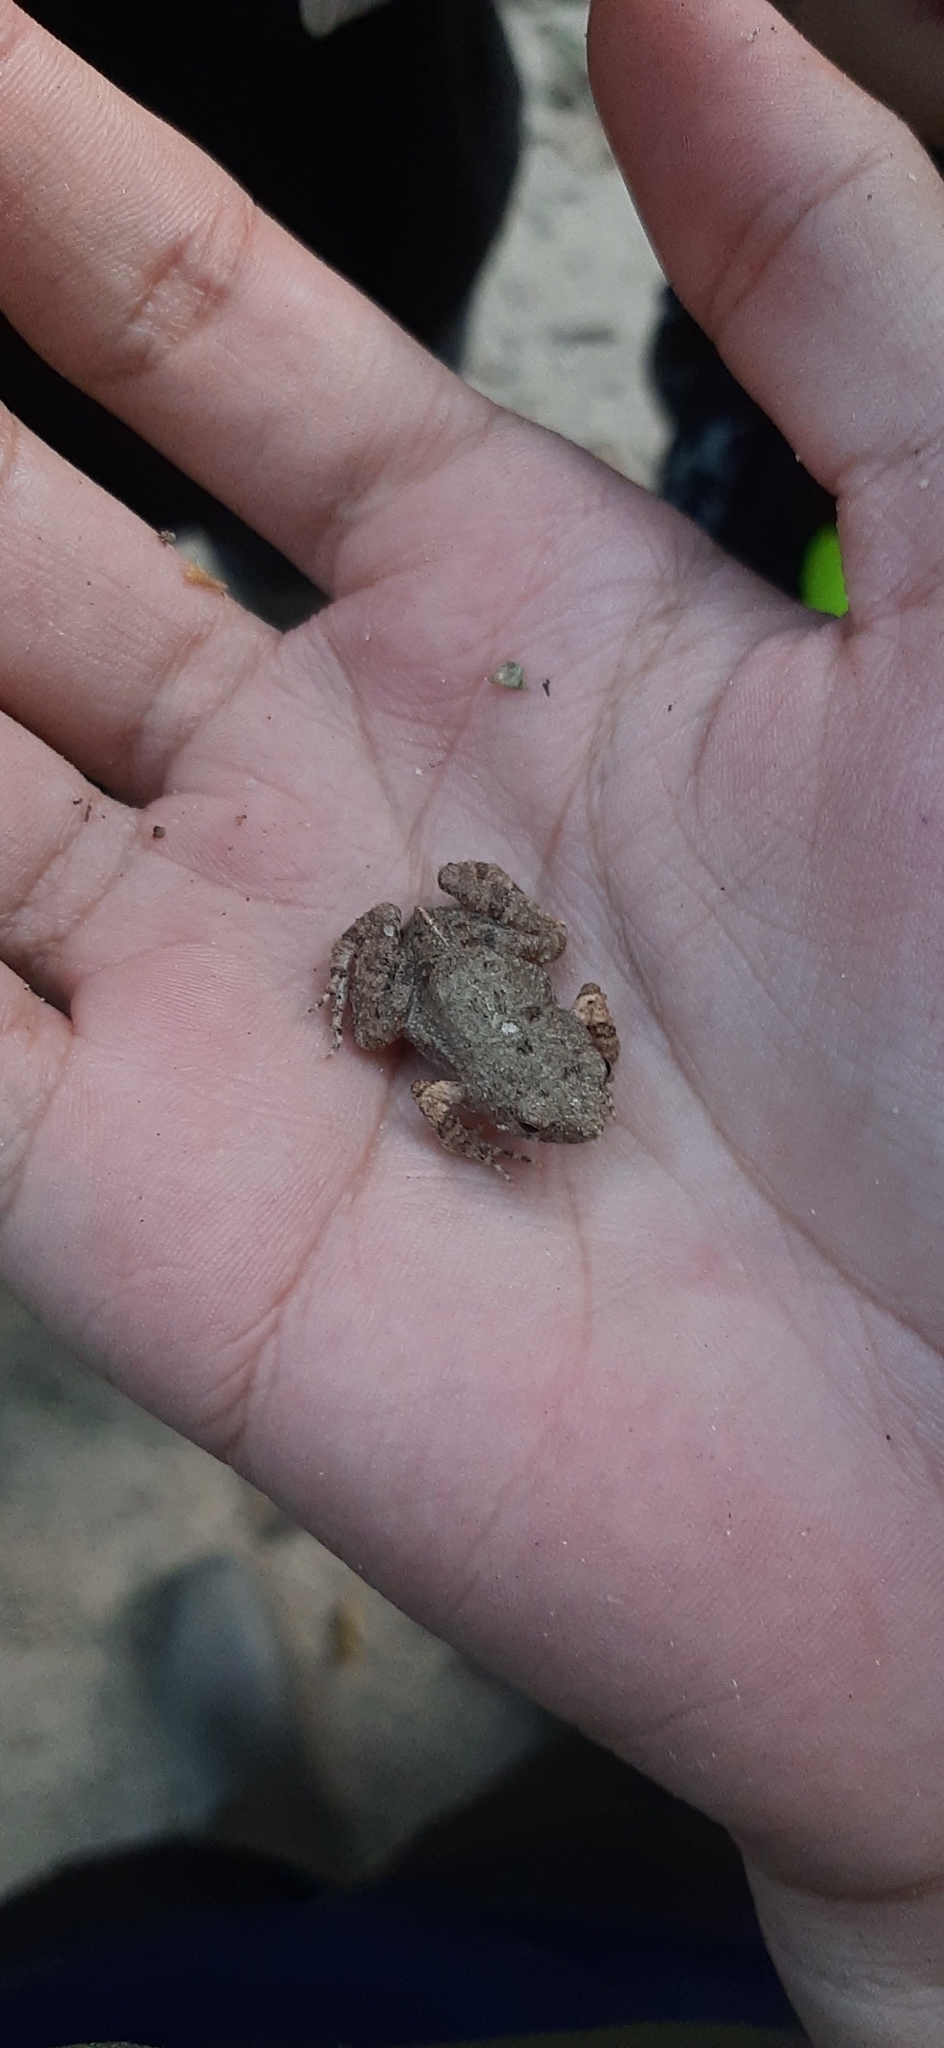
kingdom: Animalia
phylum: Chordata
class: Amphibia
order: Anura
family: Leptodactylidae
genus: Engystomops
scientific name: Engystomops pustulosus
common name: Tungara frog
